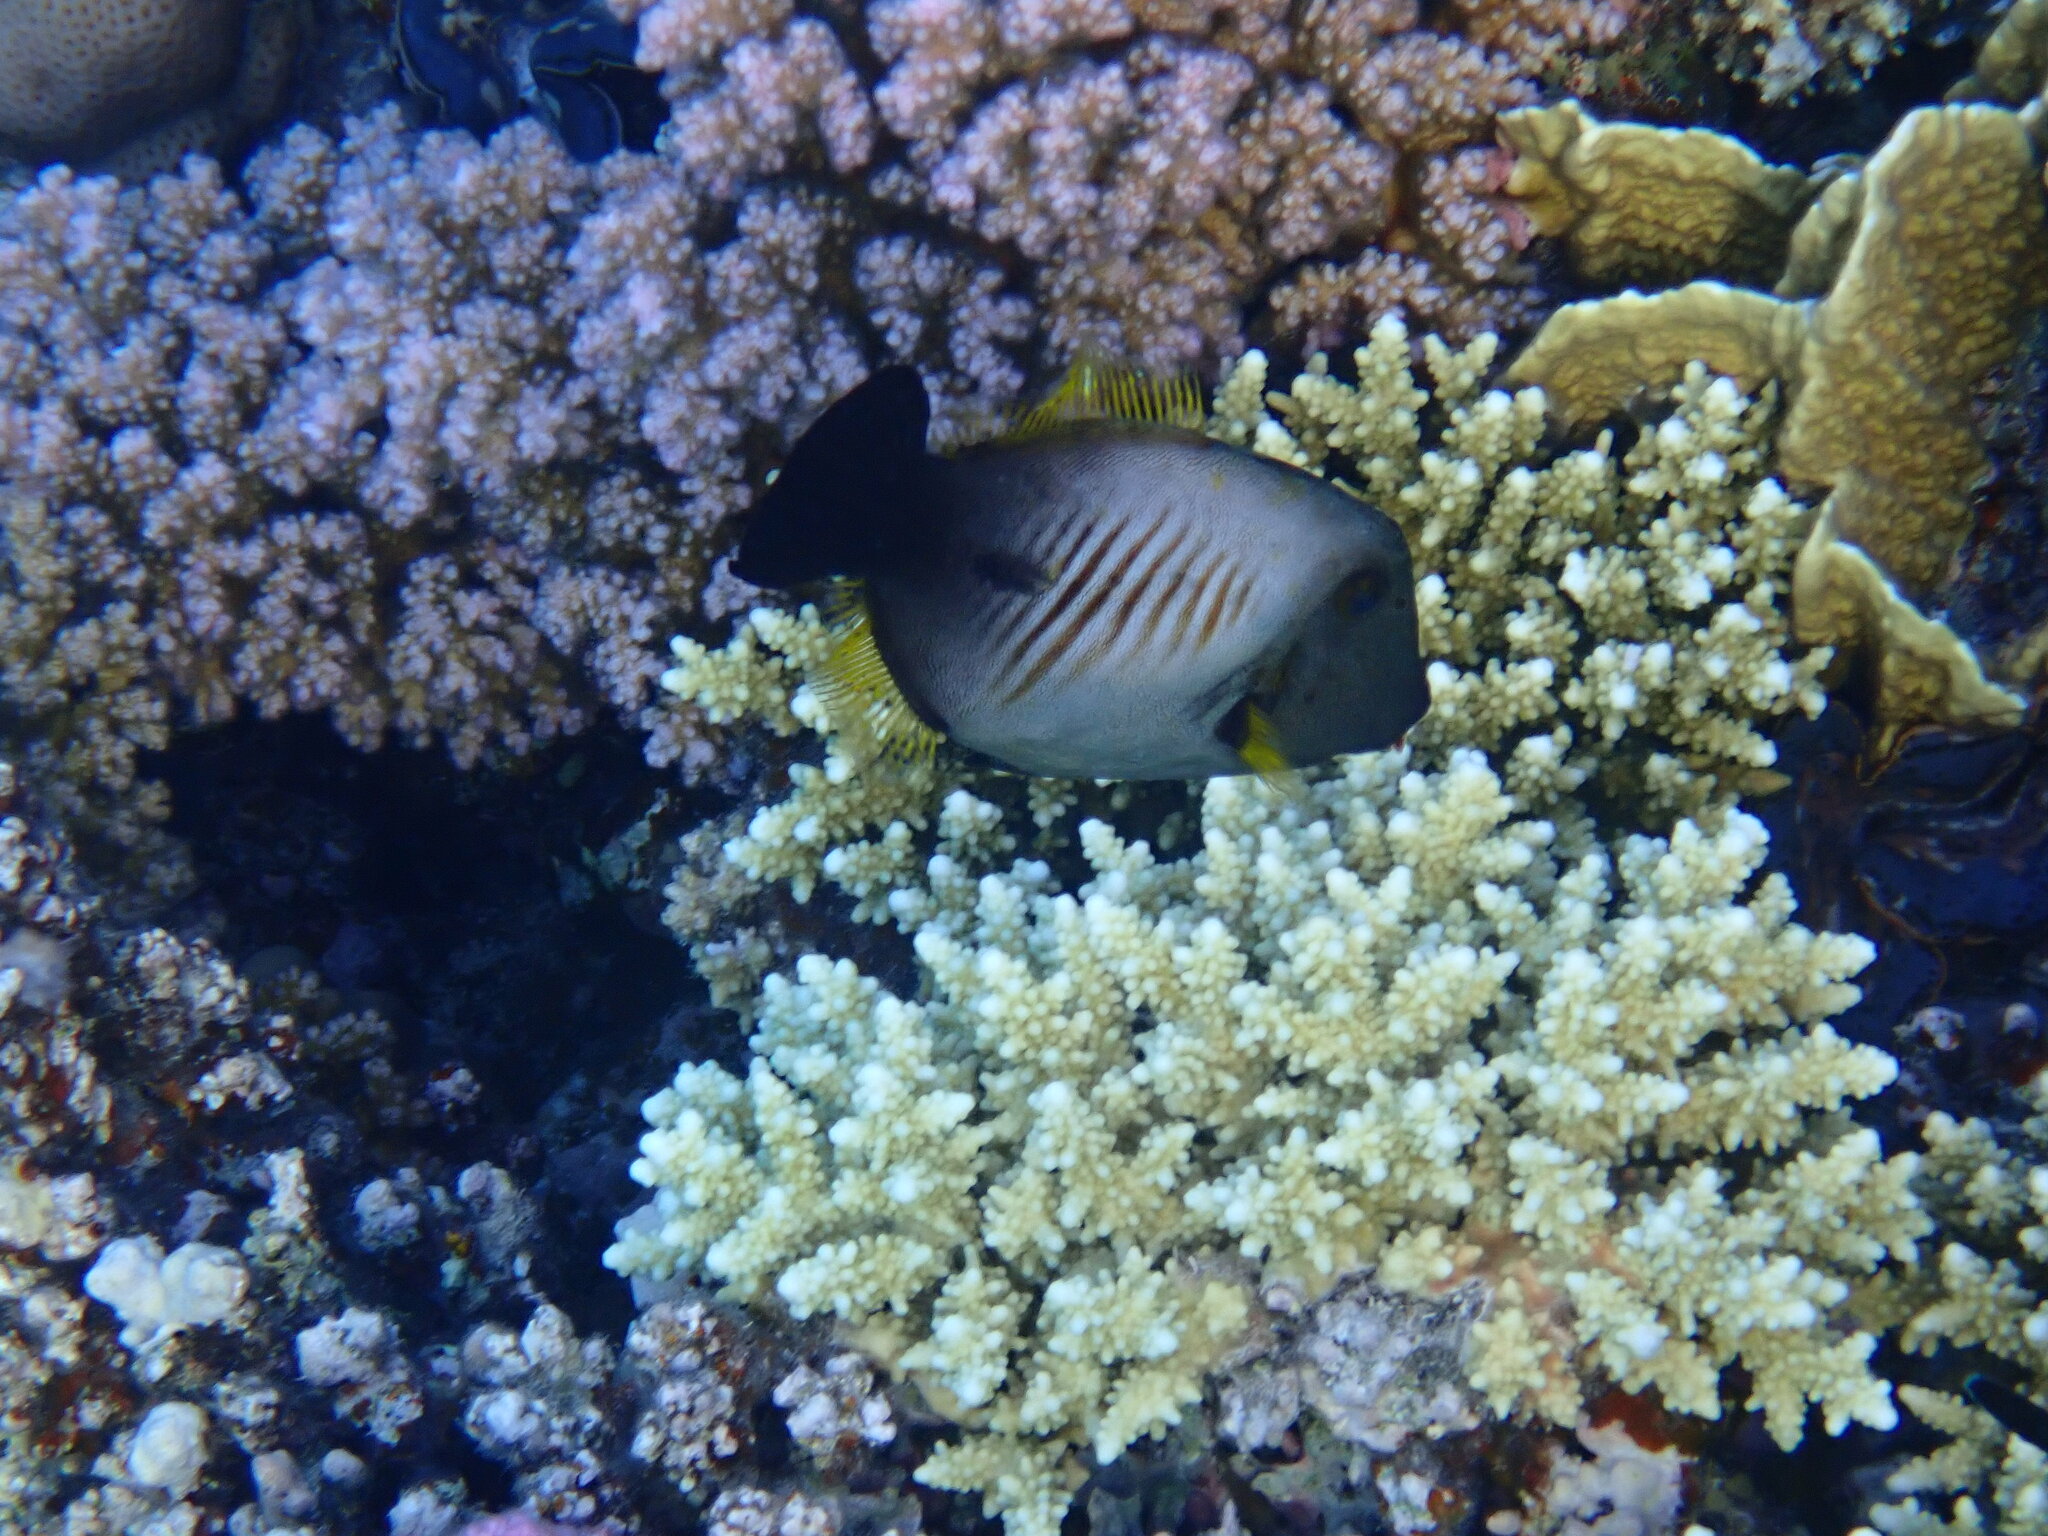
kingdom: Animalia
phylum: Chordata
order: Tetraodontiformes
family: Monacanthidae
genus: Amanses
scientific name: Amanses scopas
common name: Broom filefish
